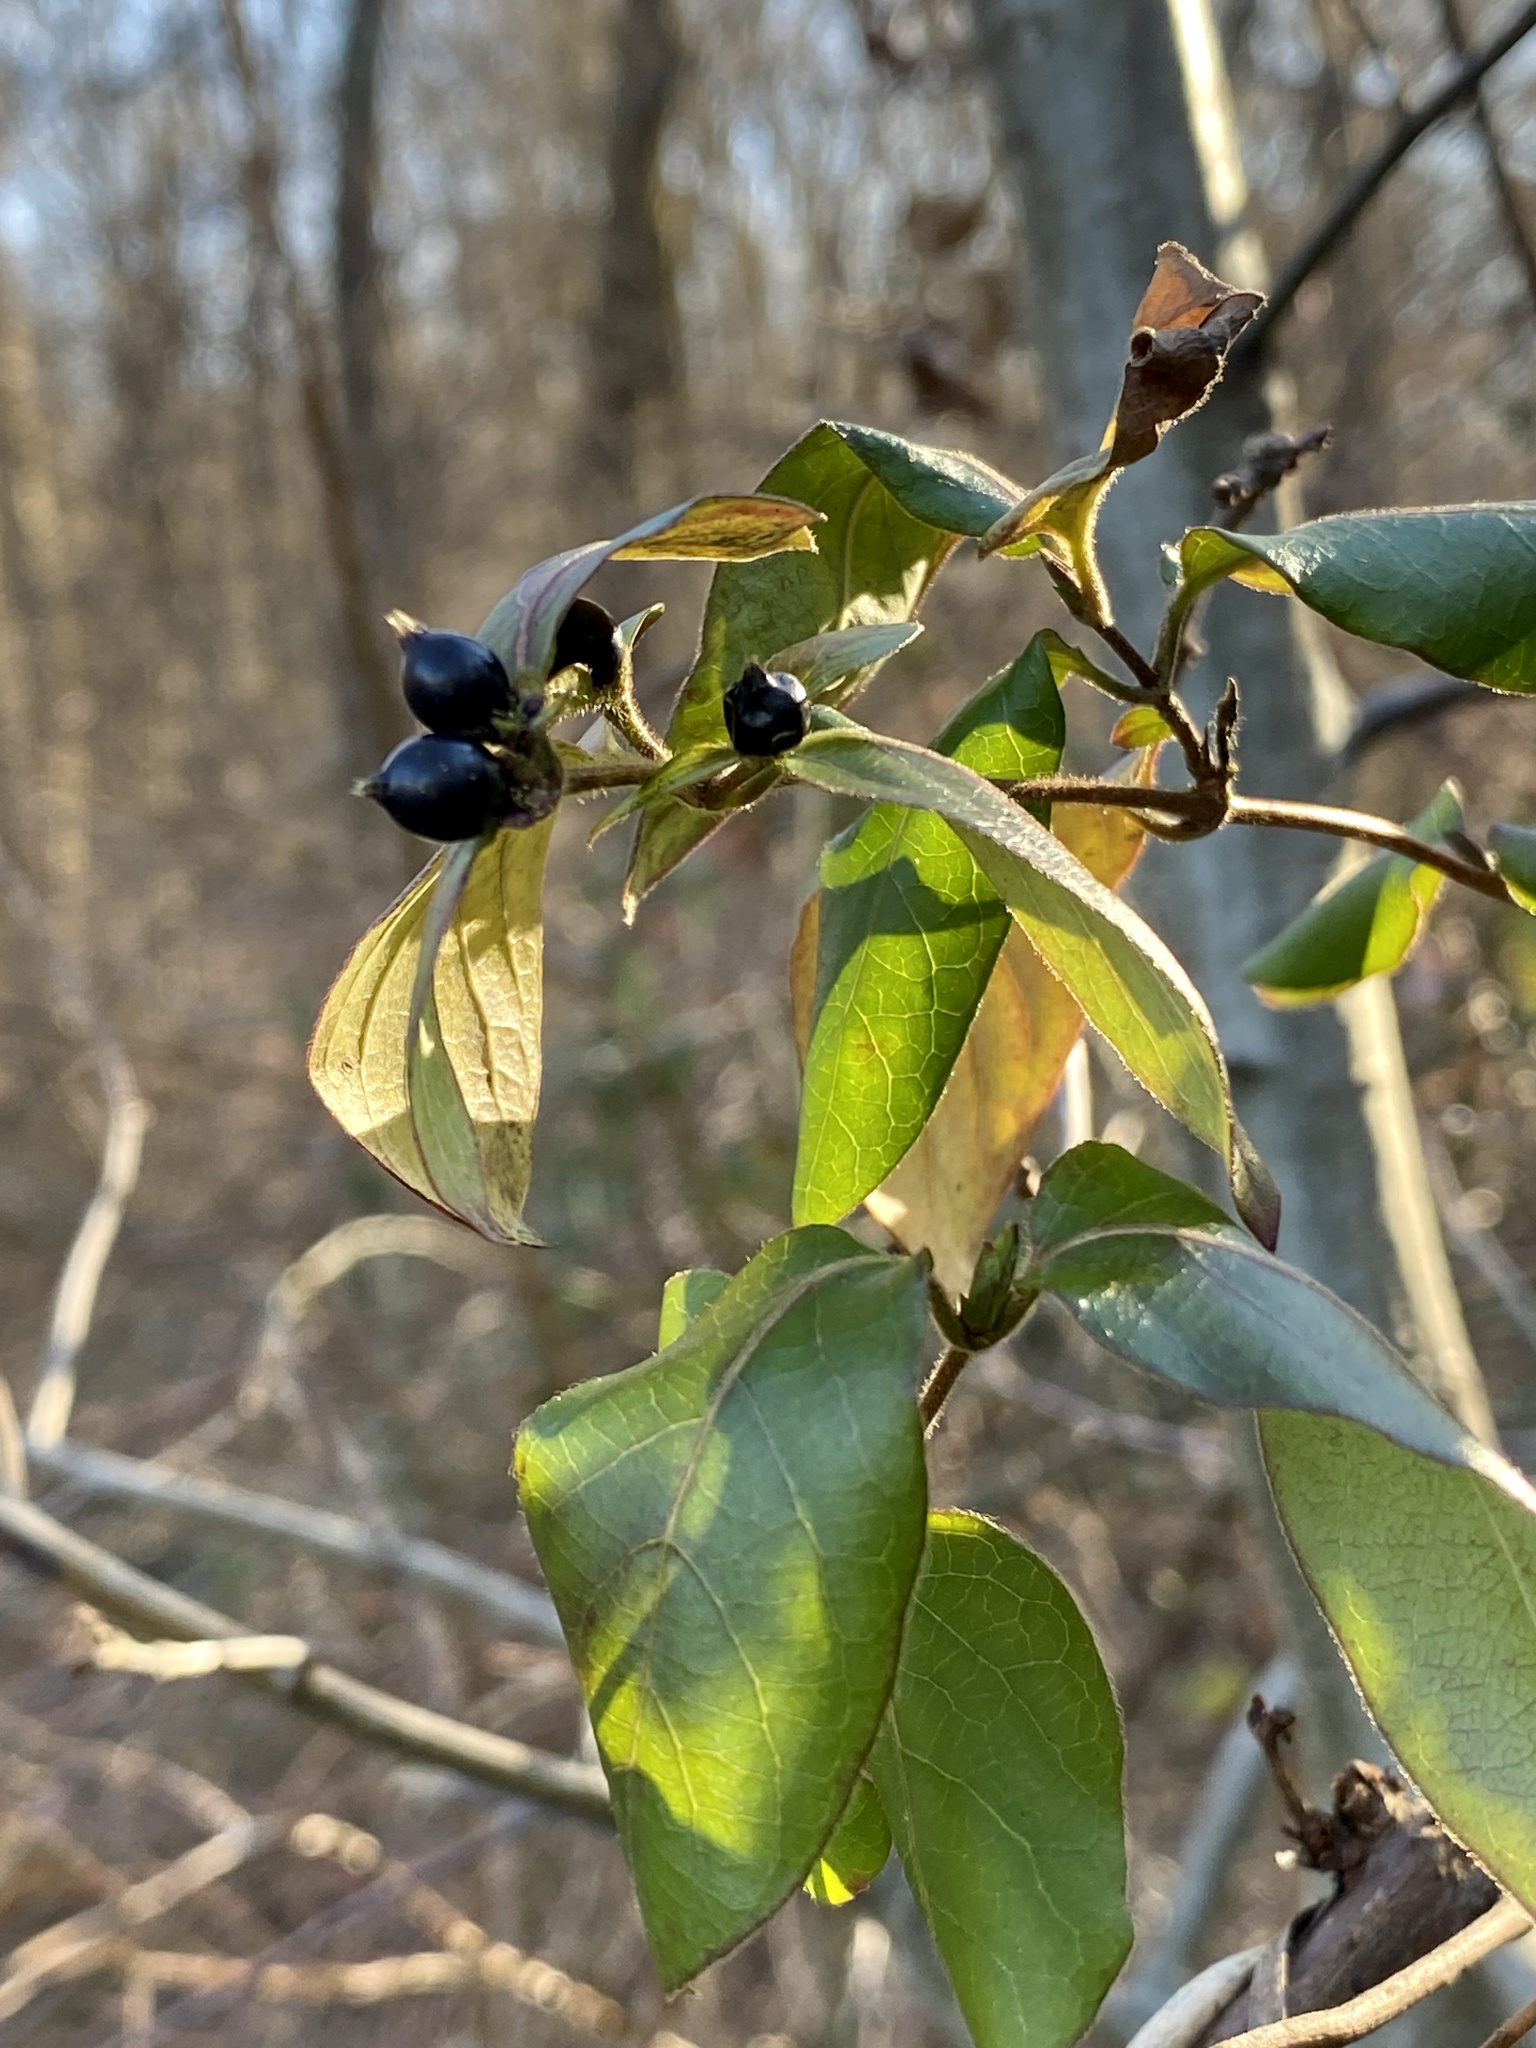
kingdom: Plantae
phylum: Tracheophyta
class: Magnoliopsida
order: Dipsacales
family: Caprifoliaceae
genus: Lonicera
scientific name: Lonicera japonica
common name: Japanese honeysuckle
